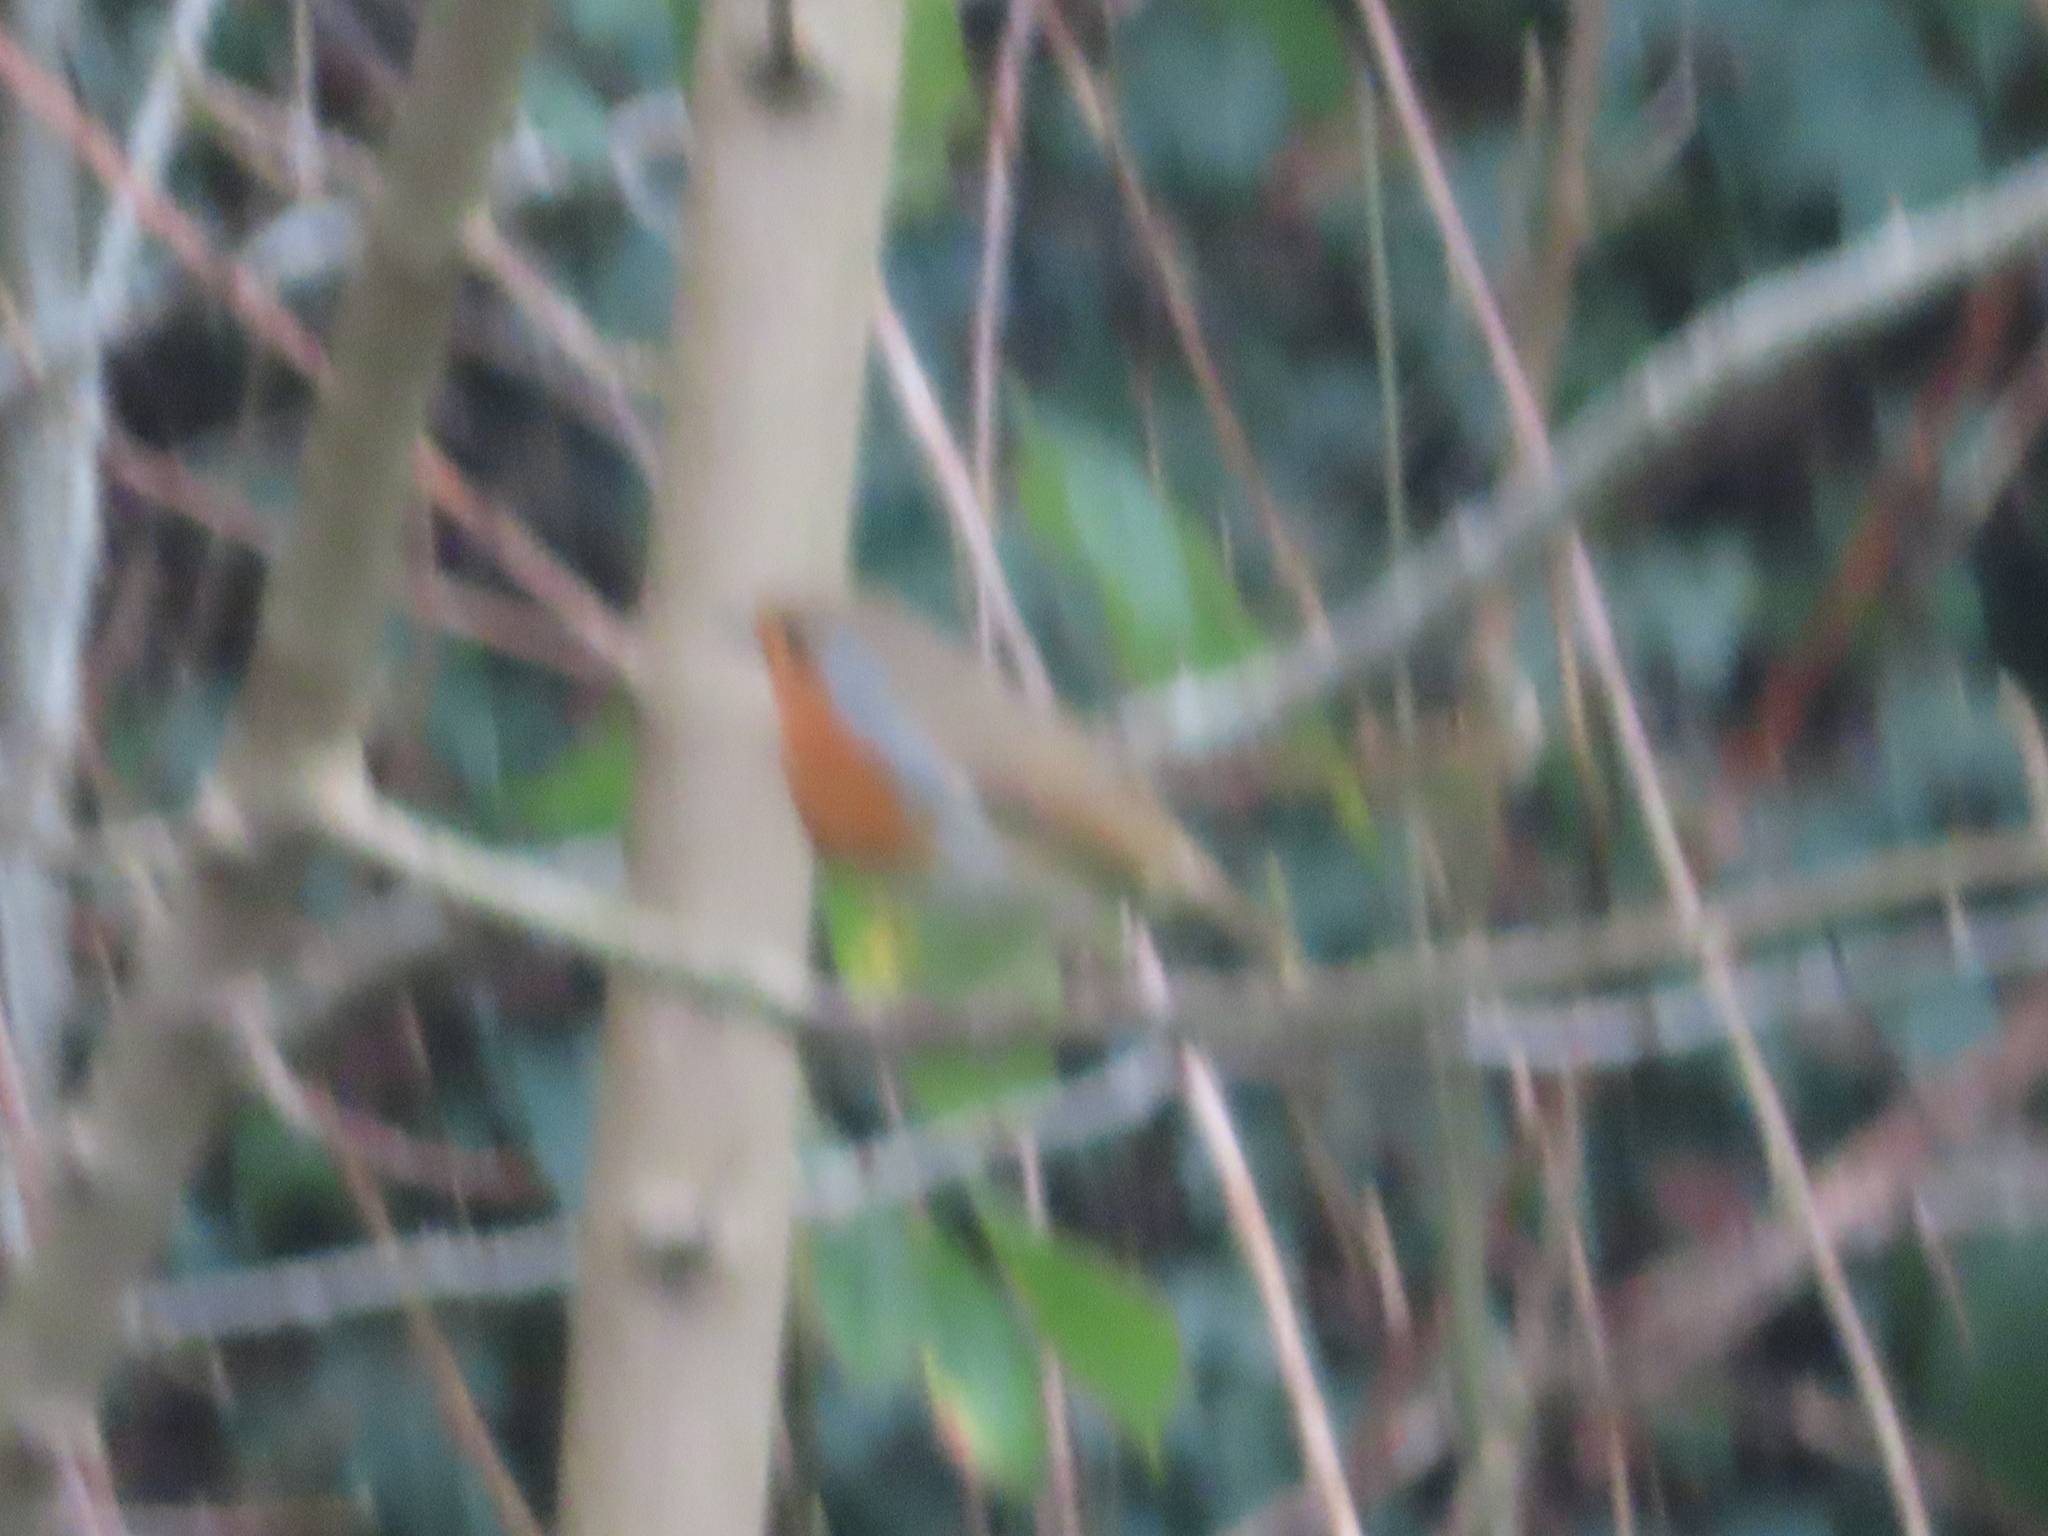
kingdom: Animalia
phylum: Chordata
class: Aves
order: Passeriformes
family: Muscicapidae
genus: Erithacus
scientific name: Erithacus rubecula
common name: European robin
